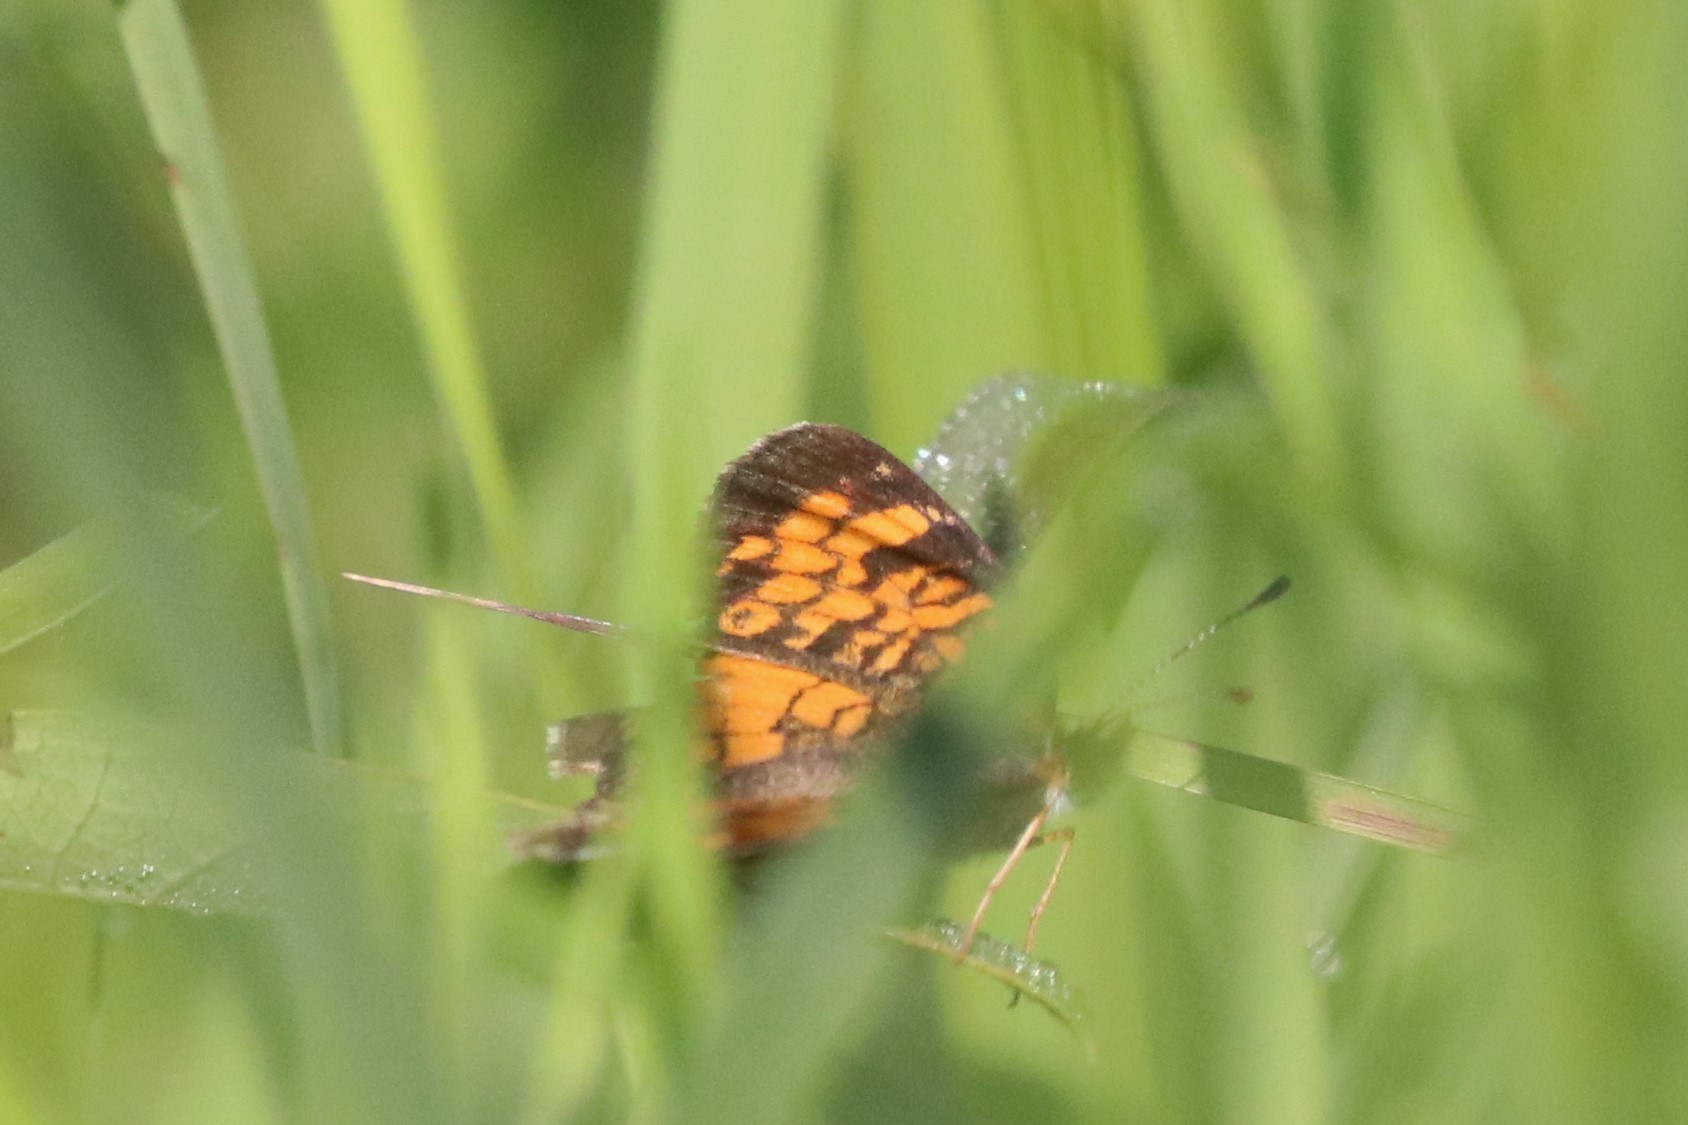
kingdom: Animalia
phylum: Arthropoda
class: Insecta
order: Lepidoptera
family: Nymphalidae
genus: Phyciodes
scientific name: Phyciodes tharos
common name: Pearl crescent
